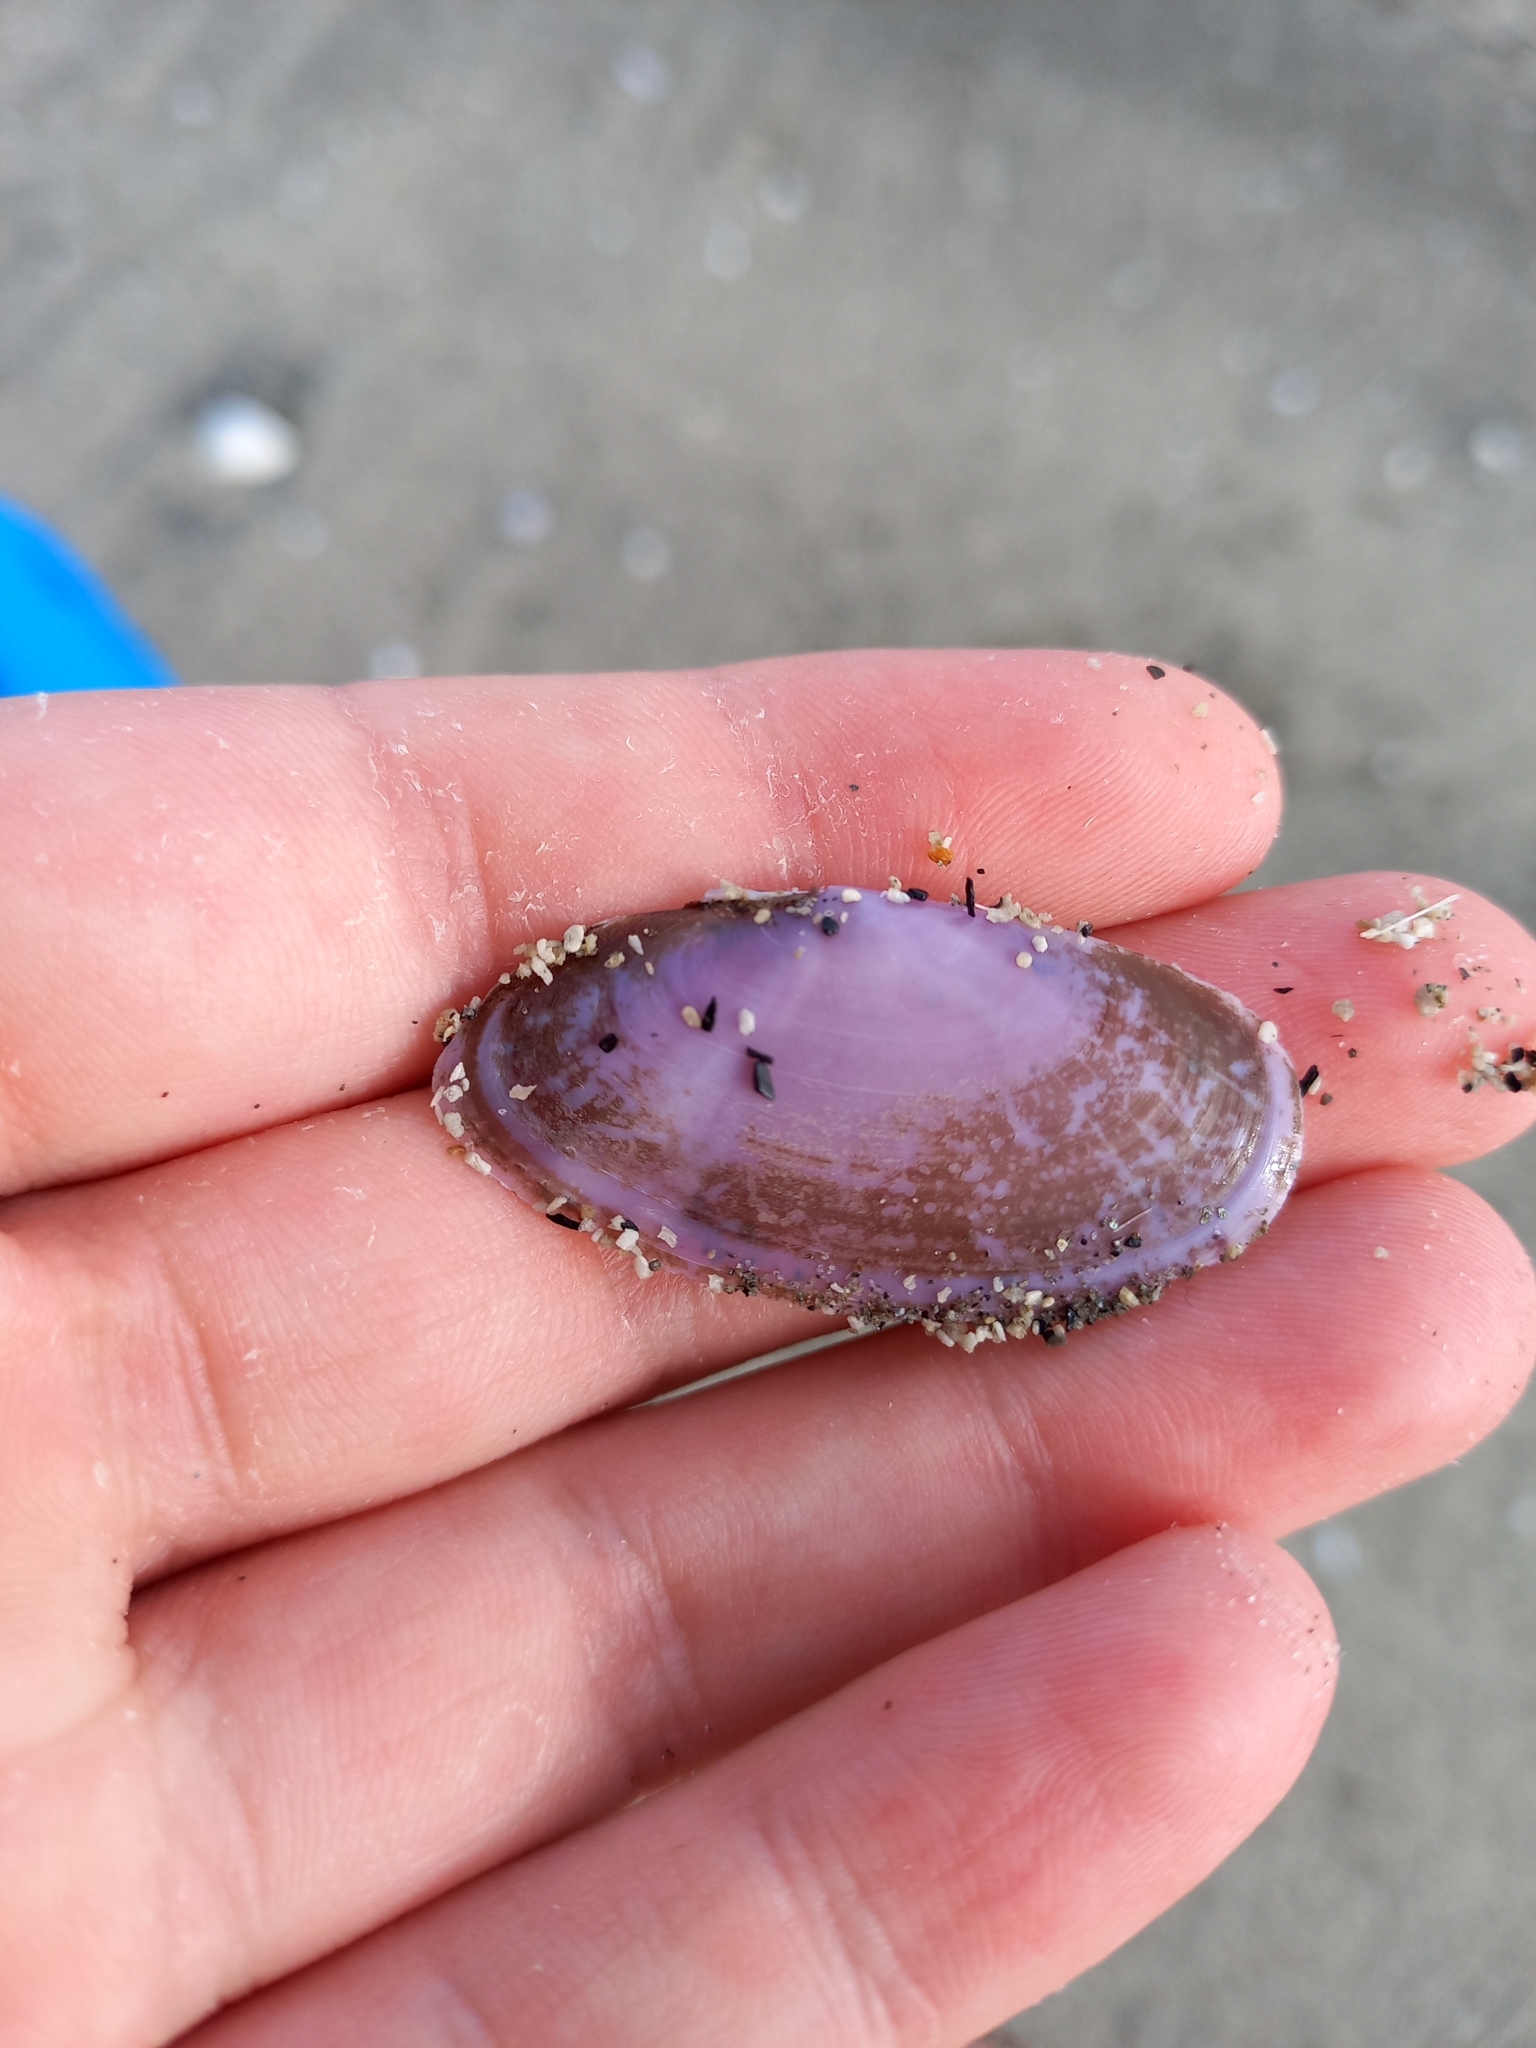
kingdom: Animalia
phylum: Mollusca
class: Bivalvia
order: Cardiida
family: Psammobiidae
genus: Hiatula
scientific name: Hiatula nitida
